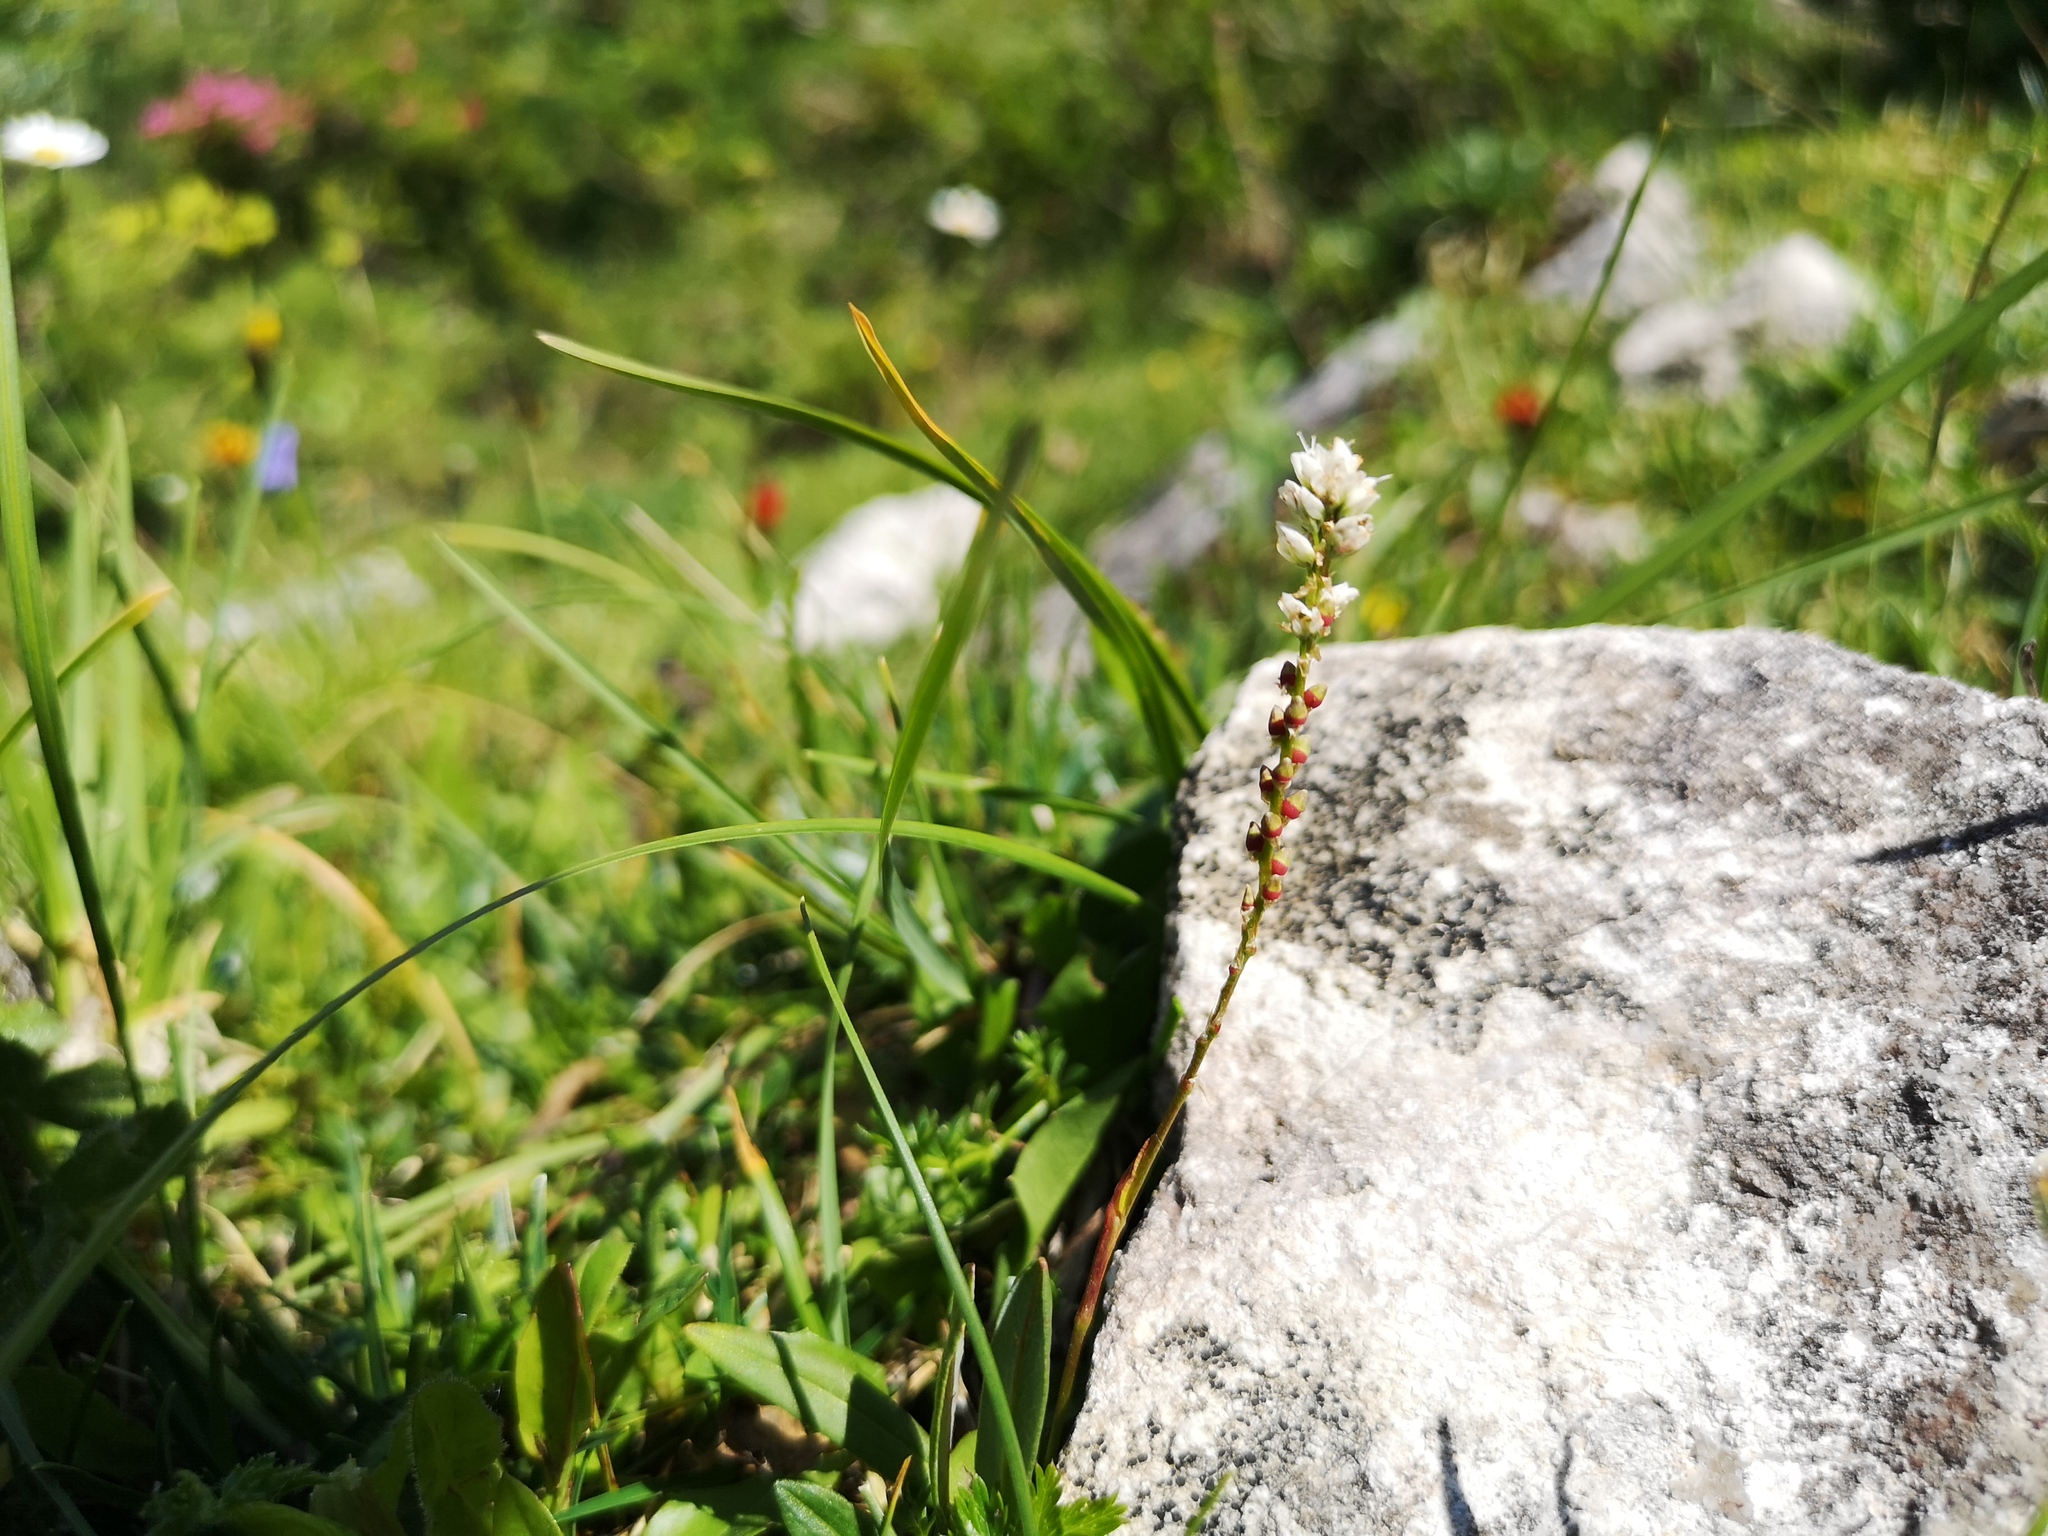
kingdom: Plantae
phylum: Tracheophyta
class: Magnoliopsida
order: Caryophyllales
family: Polygonaceae
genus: Bistorta
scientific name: Bistorta vivipara
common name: Alpine bistort
